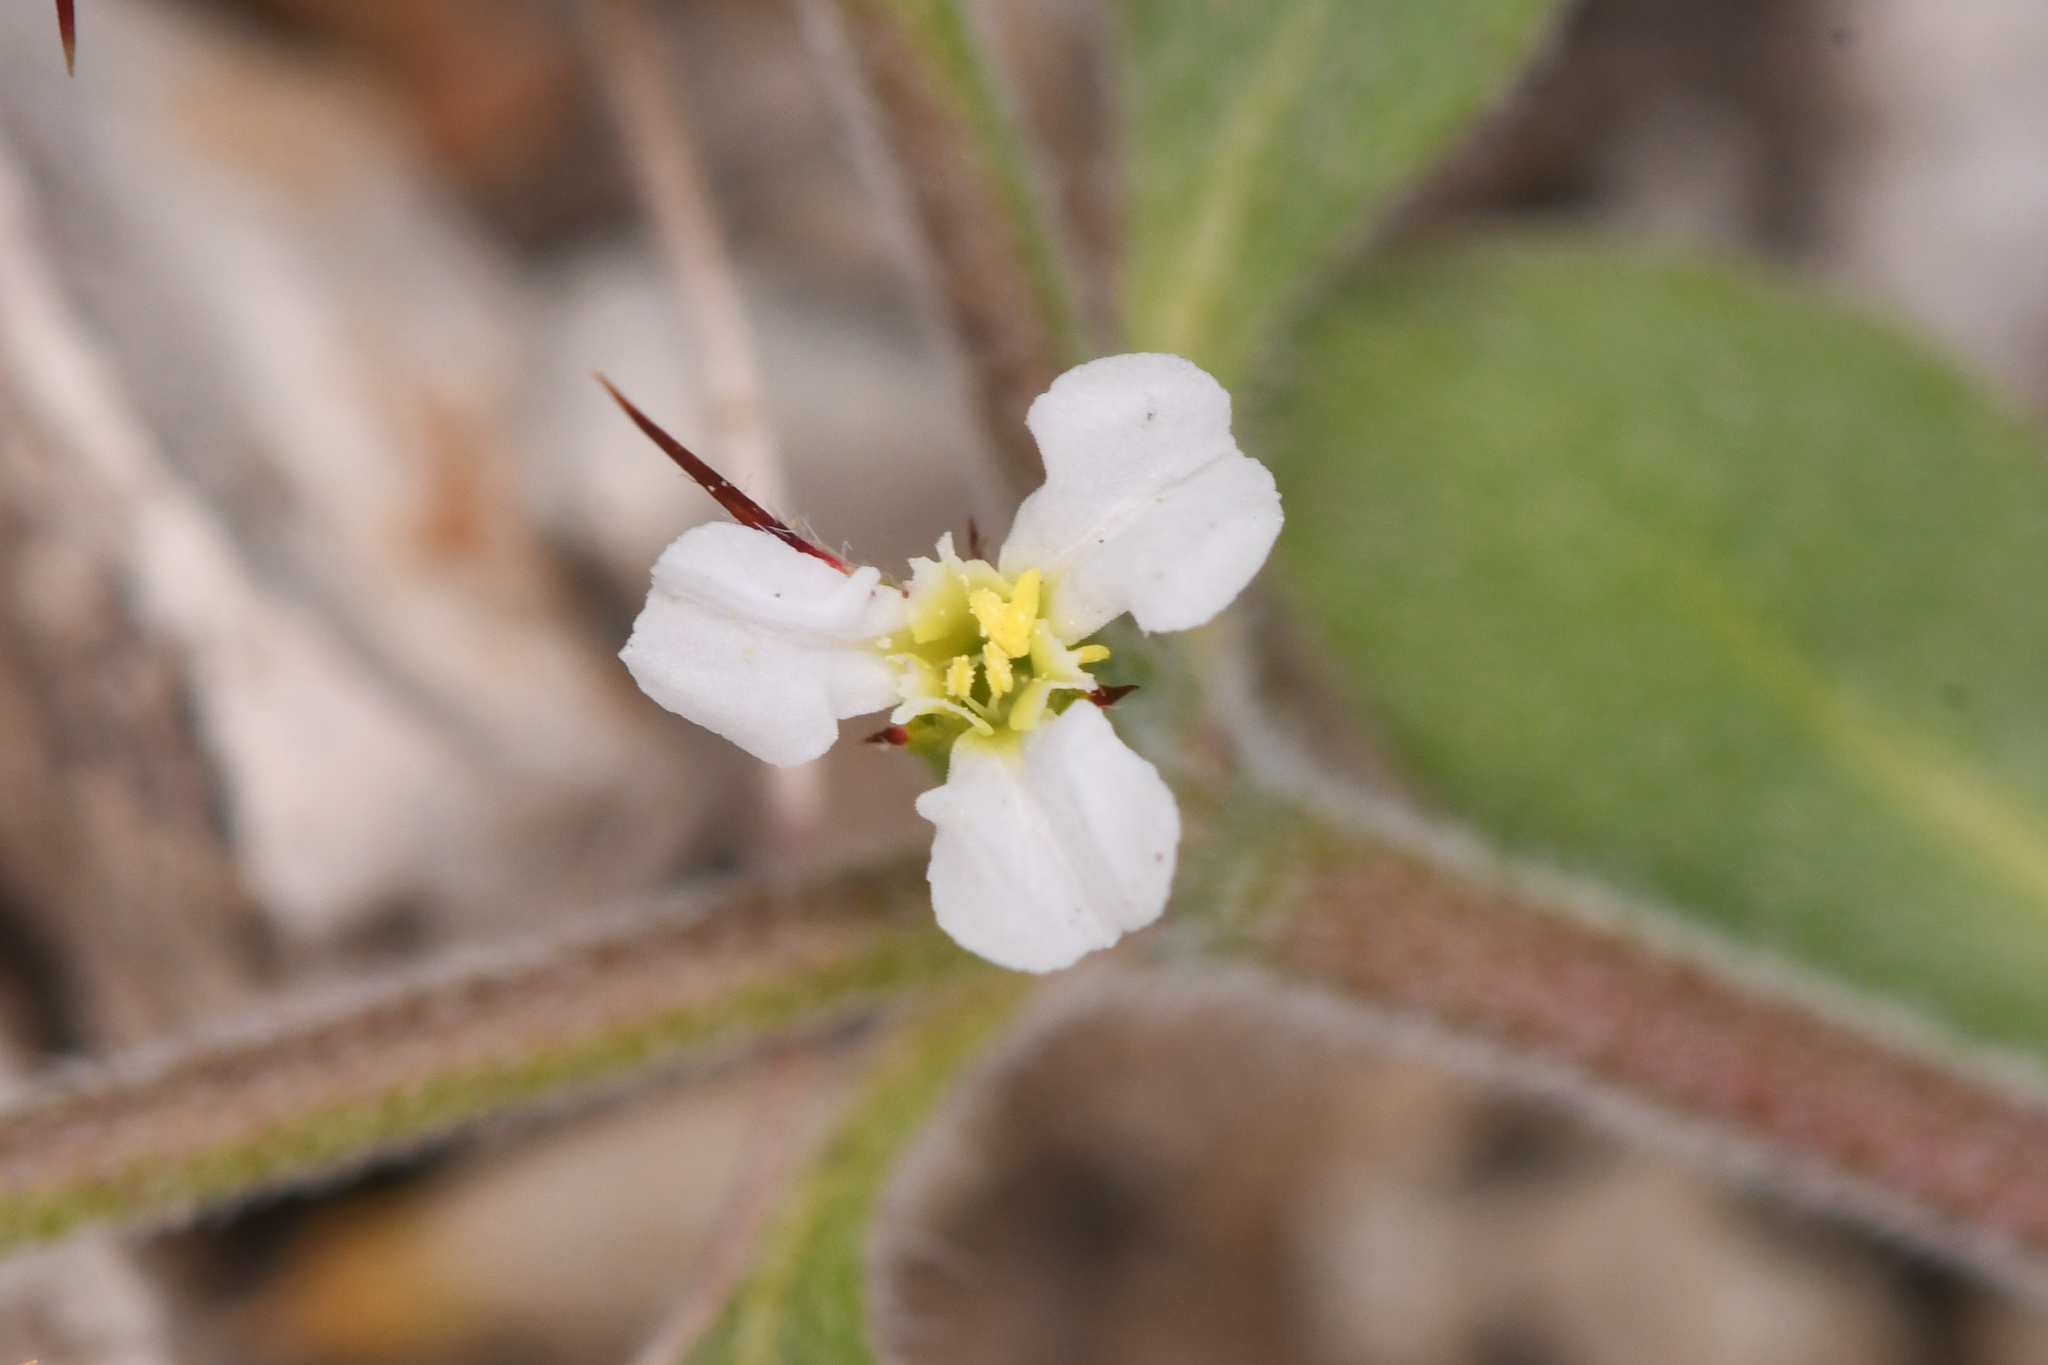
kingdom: Plantae
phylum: Tracheophyta
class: Magnoliopsida
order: Caryophyllales
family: Polygonaceae
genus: Chorizanthe
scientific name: Chorizanthe rectispina
